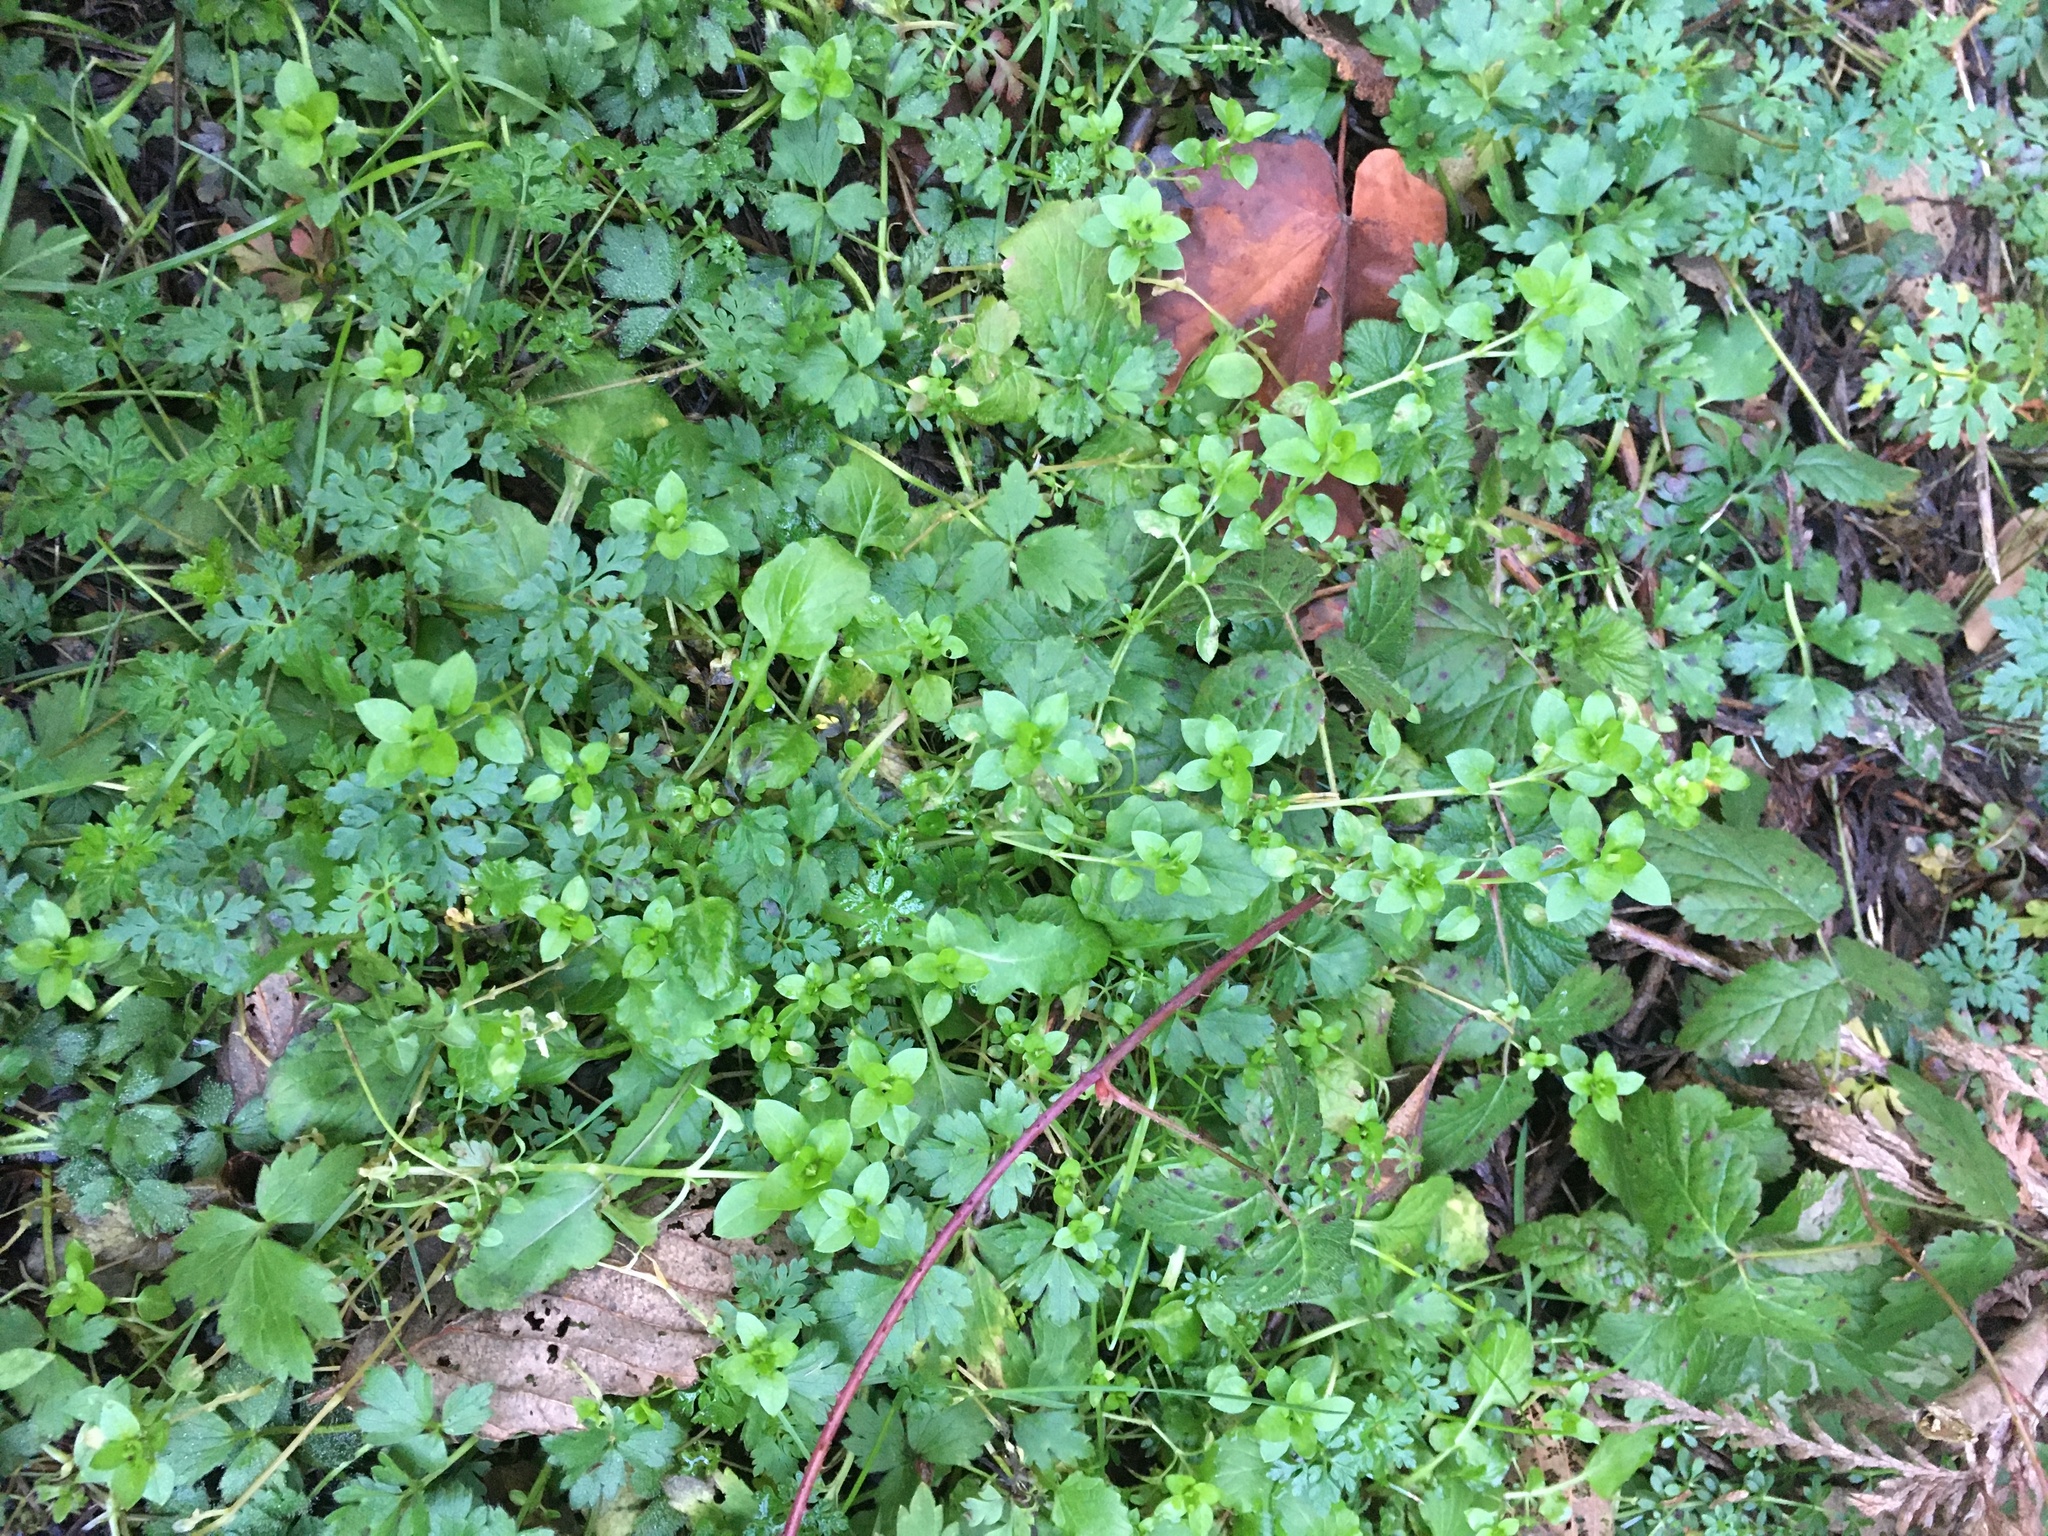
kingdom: Plantae
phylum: Tracheophyta
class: Magnoliopsida
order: Caryophyllales
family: Caryophyllaceae
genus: Stellaria
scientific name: Stellaria media
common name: Common chickweed
